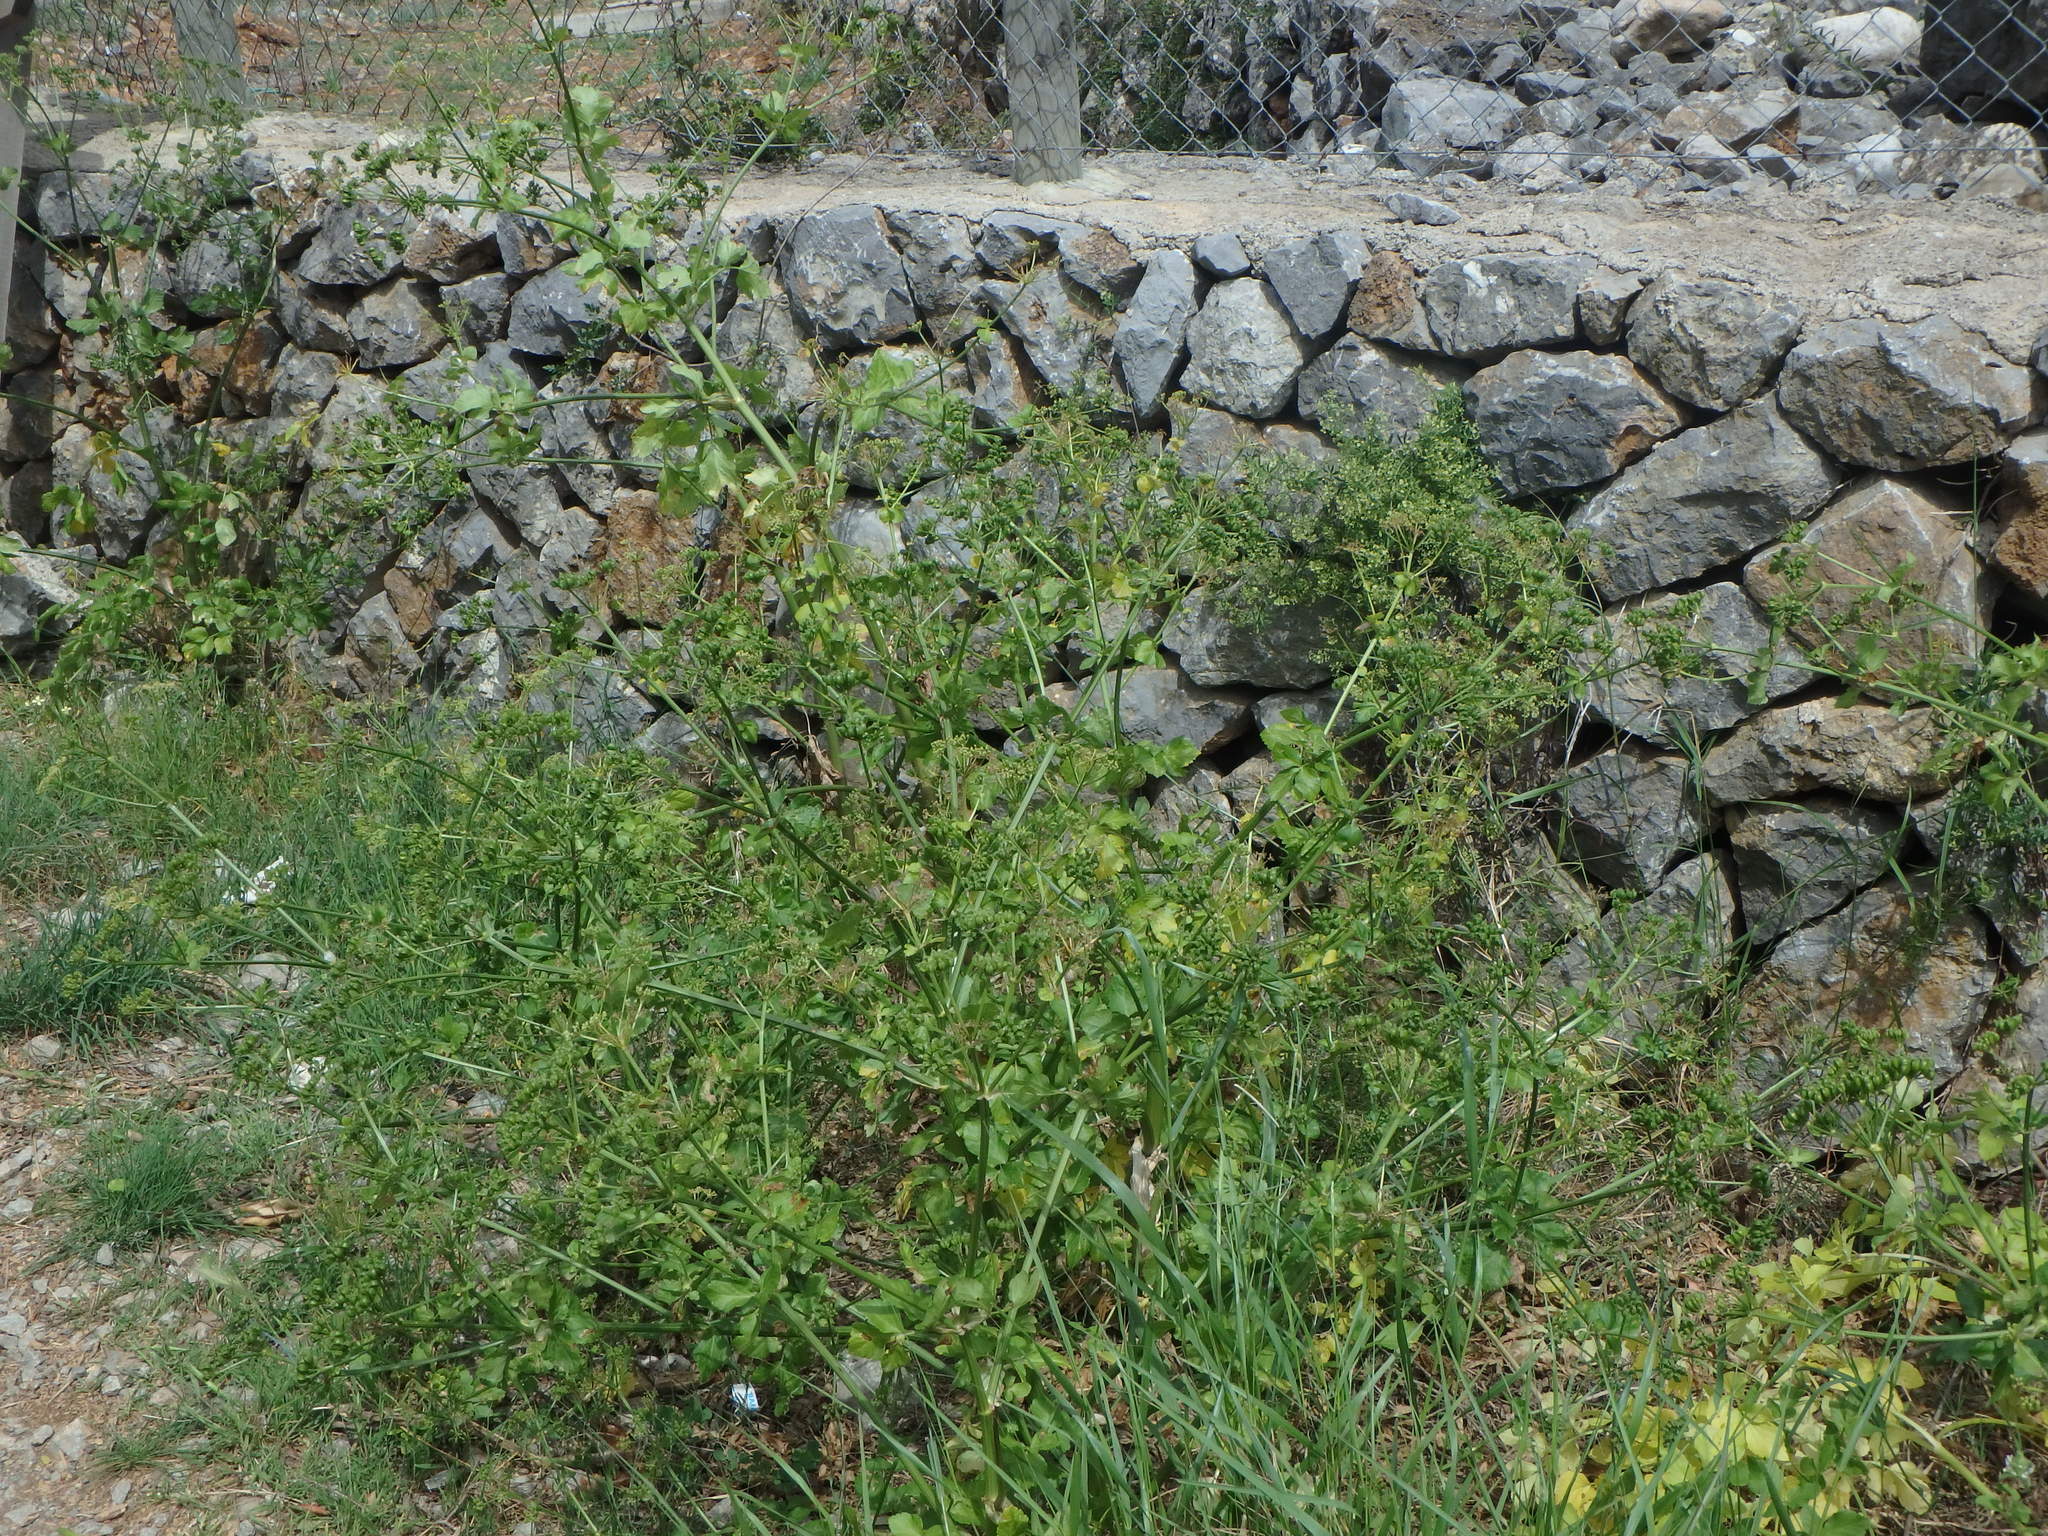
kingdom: Plantae
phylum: Tracheophyta
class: Magnoliopsida
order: Apiales
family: Apiaceae
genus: Smyrnium
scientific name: Smyrnium olusatrum
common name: Alexanders
